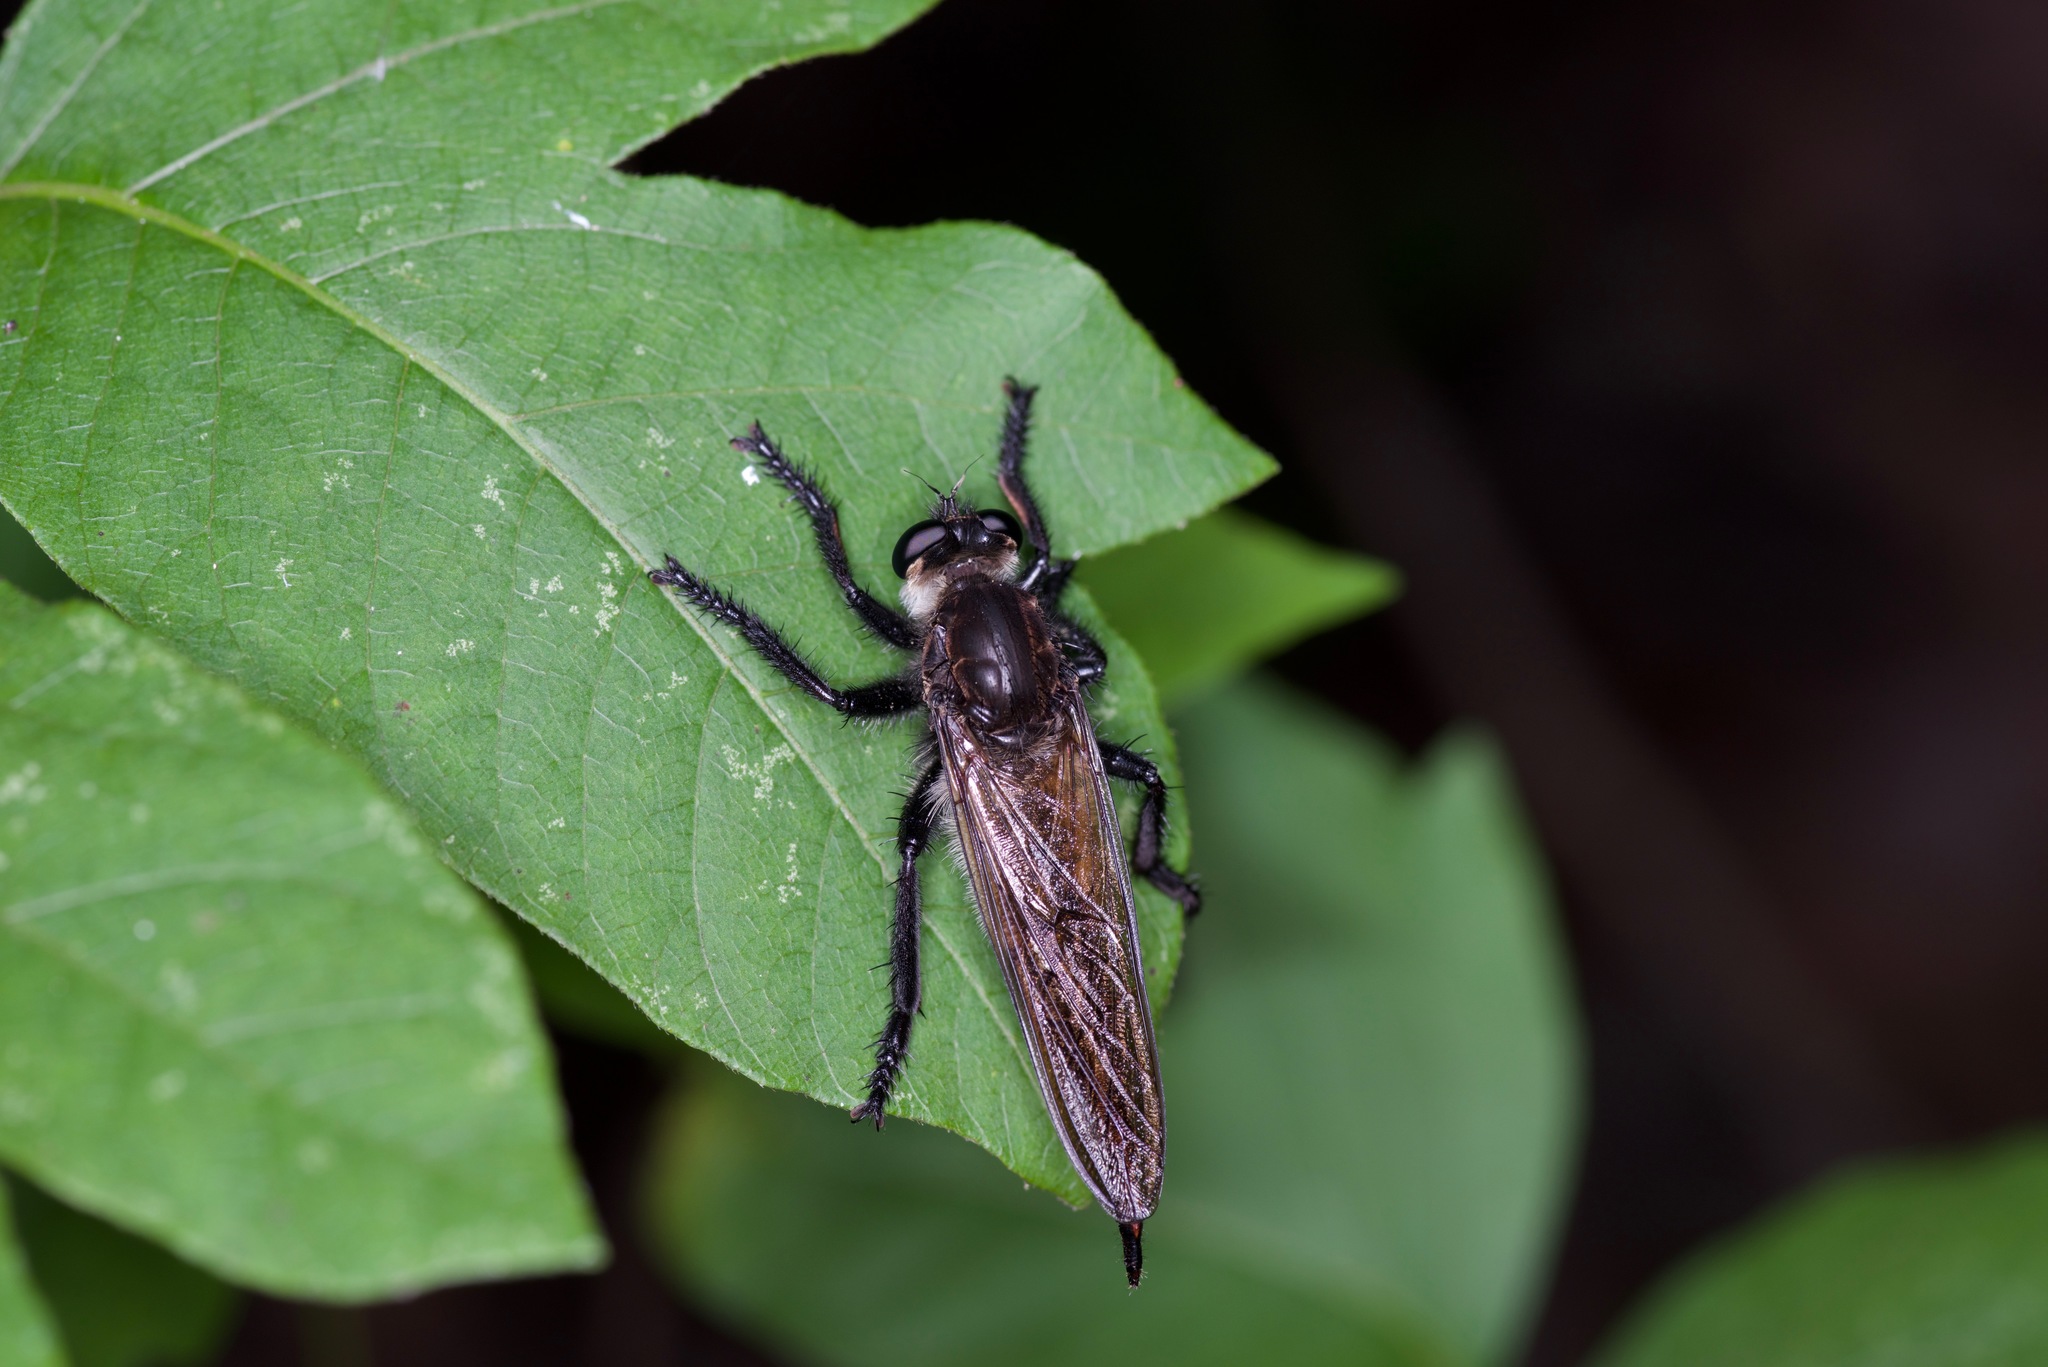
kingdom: Animalia
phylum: Arthropoda
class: Insecta
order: Diptera
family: Asilidae
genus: Promachus
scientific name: Promachus painteri
